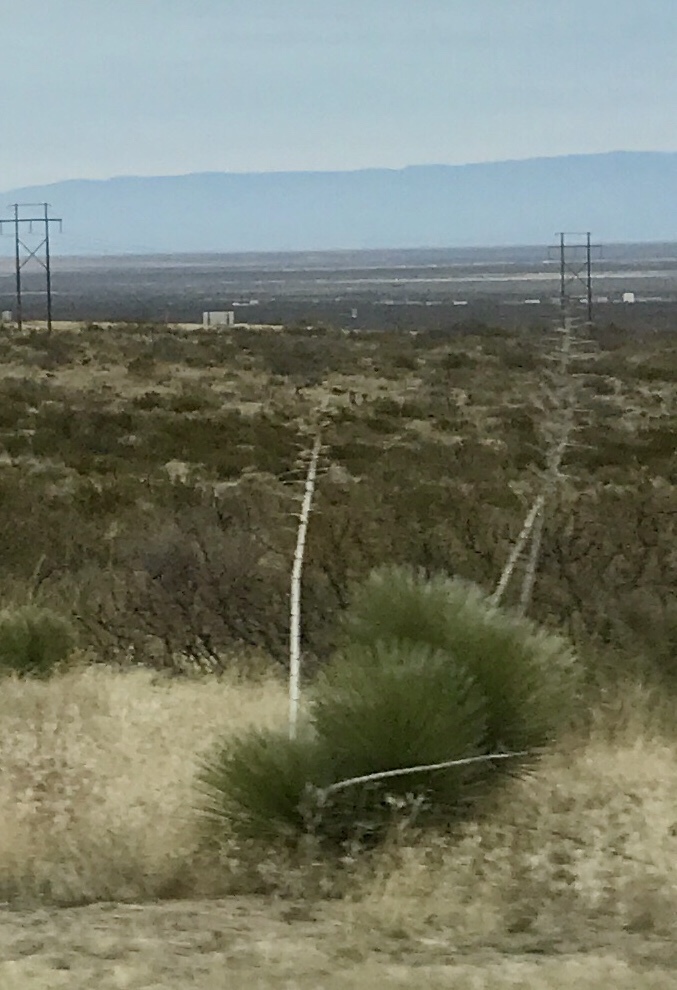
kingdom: Plantae
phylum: Tracheophyta
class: Liliopsida
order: Asparagales
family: Asparagaceae
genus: Yucca
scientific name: Yucca elata
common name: Palmella
